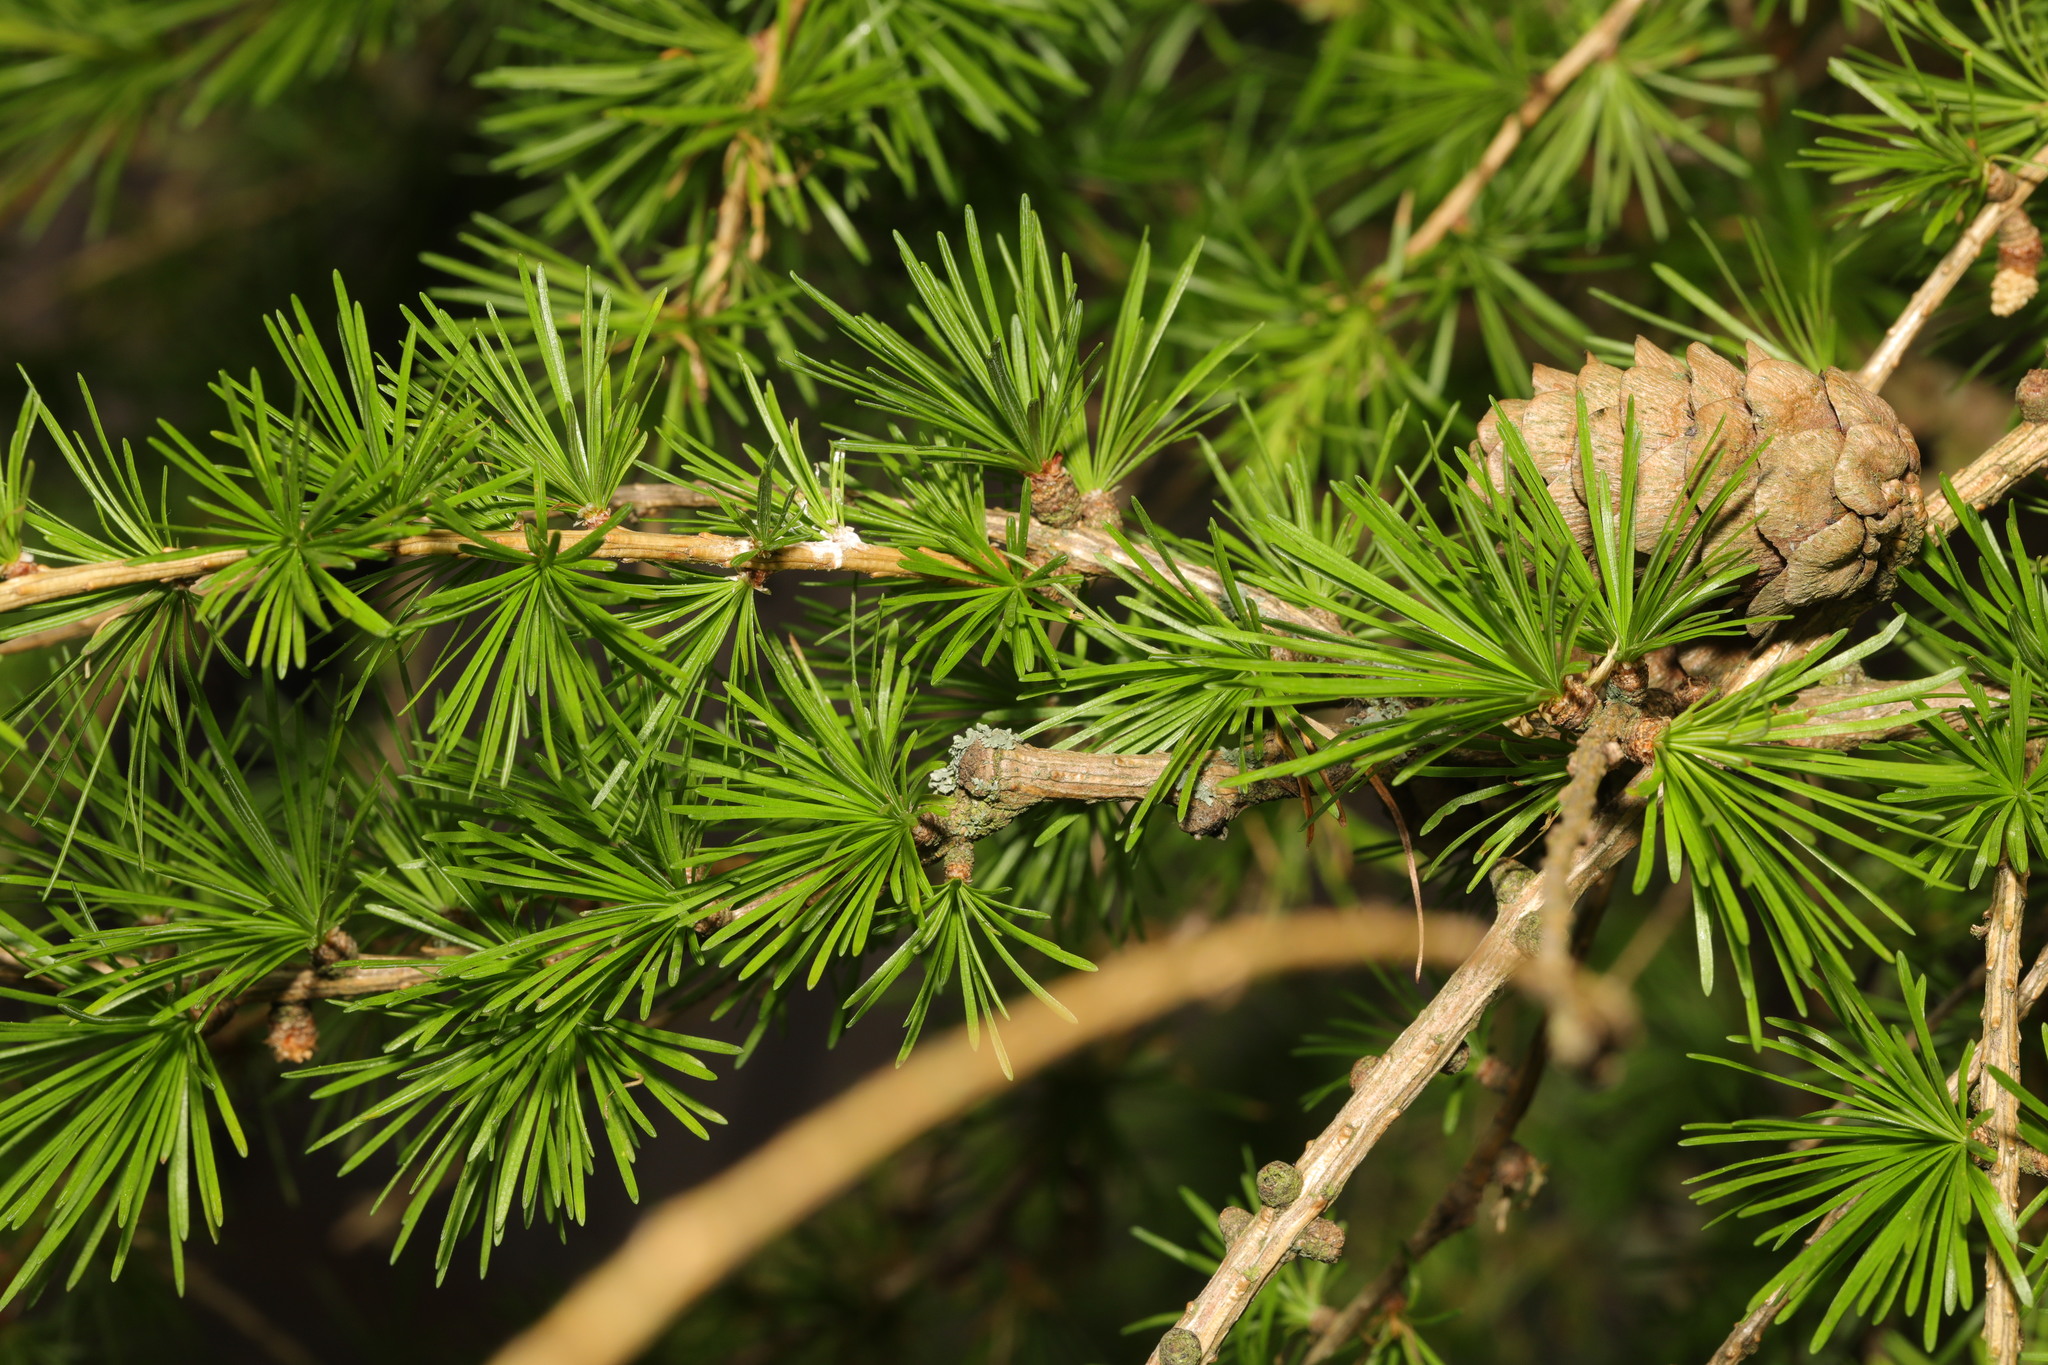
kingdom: Plantae
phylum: Tracheophyta
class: Pinopsida
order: Pinales
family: Pinaceae
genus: Larix
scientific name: Larix decidua
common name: European larch
